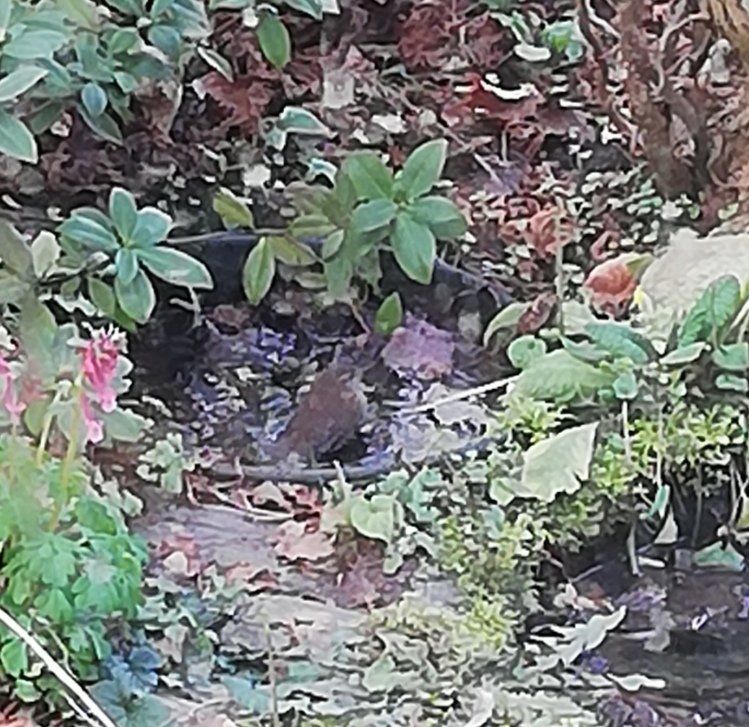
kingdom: Animalia
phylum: Chordata
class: Aves
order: Passeriformes
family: Troglodytidae
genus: Troglodytes
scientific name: Troglodytes troglodytes
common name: Eurasian wren
